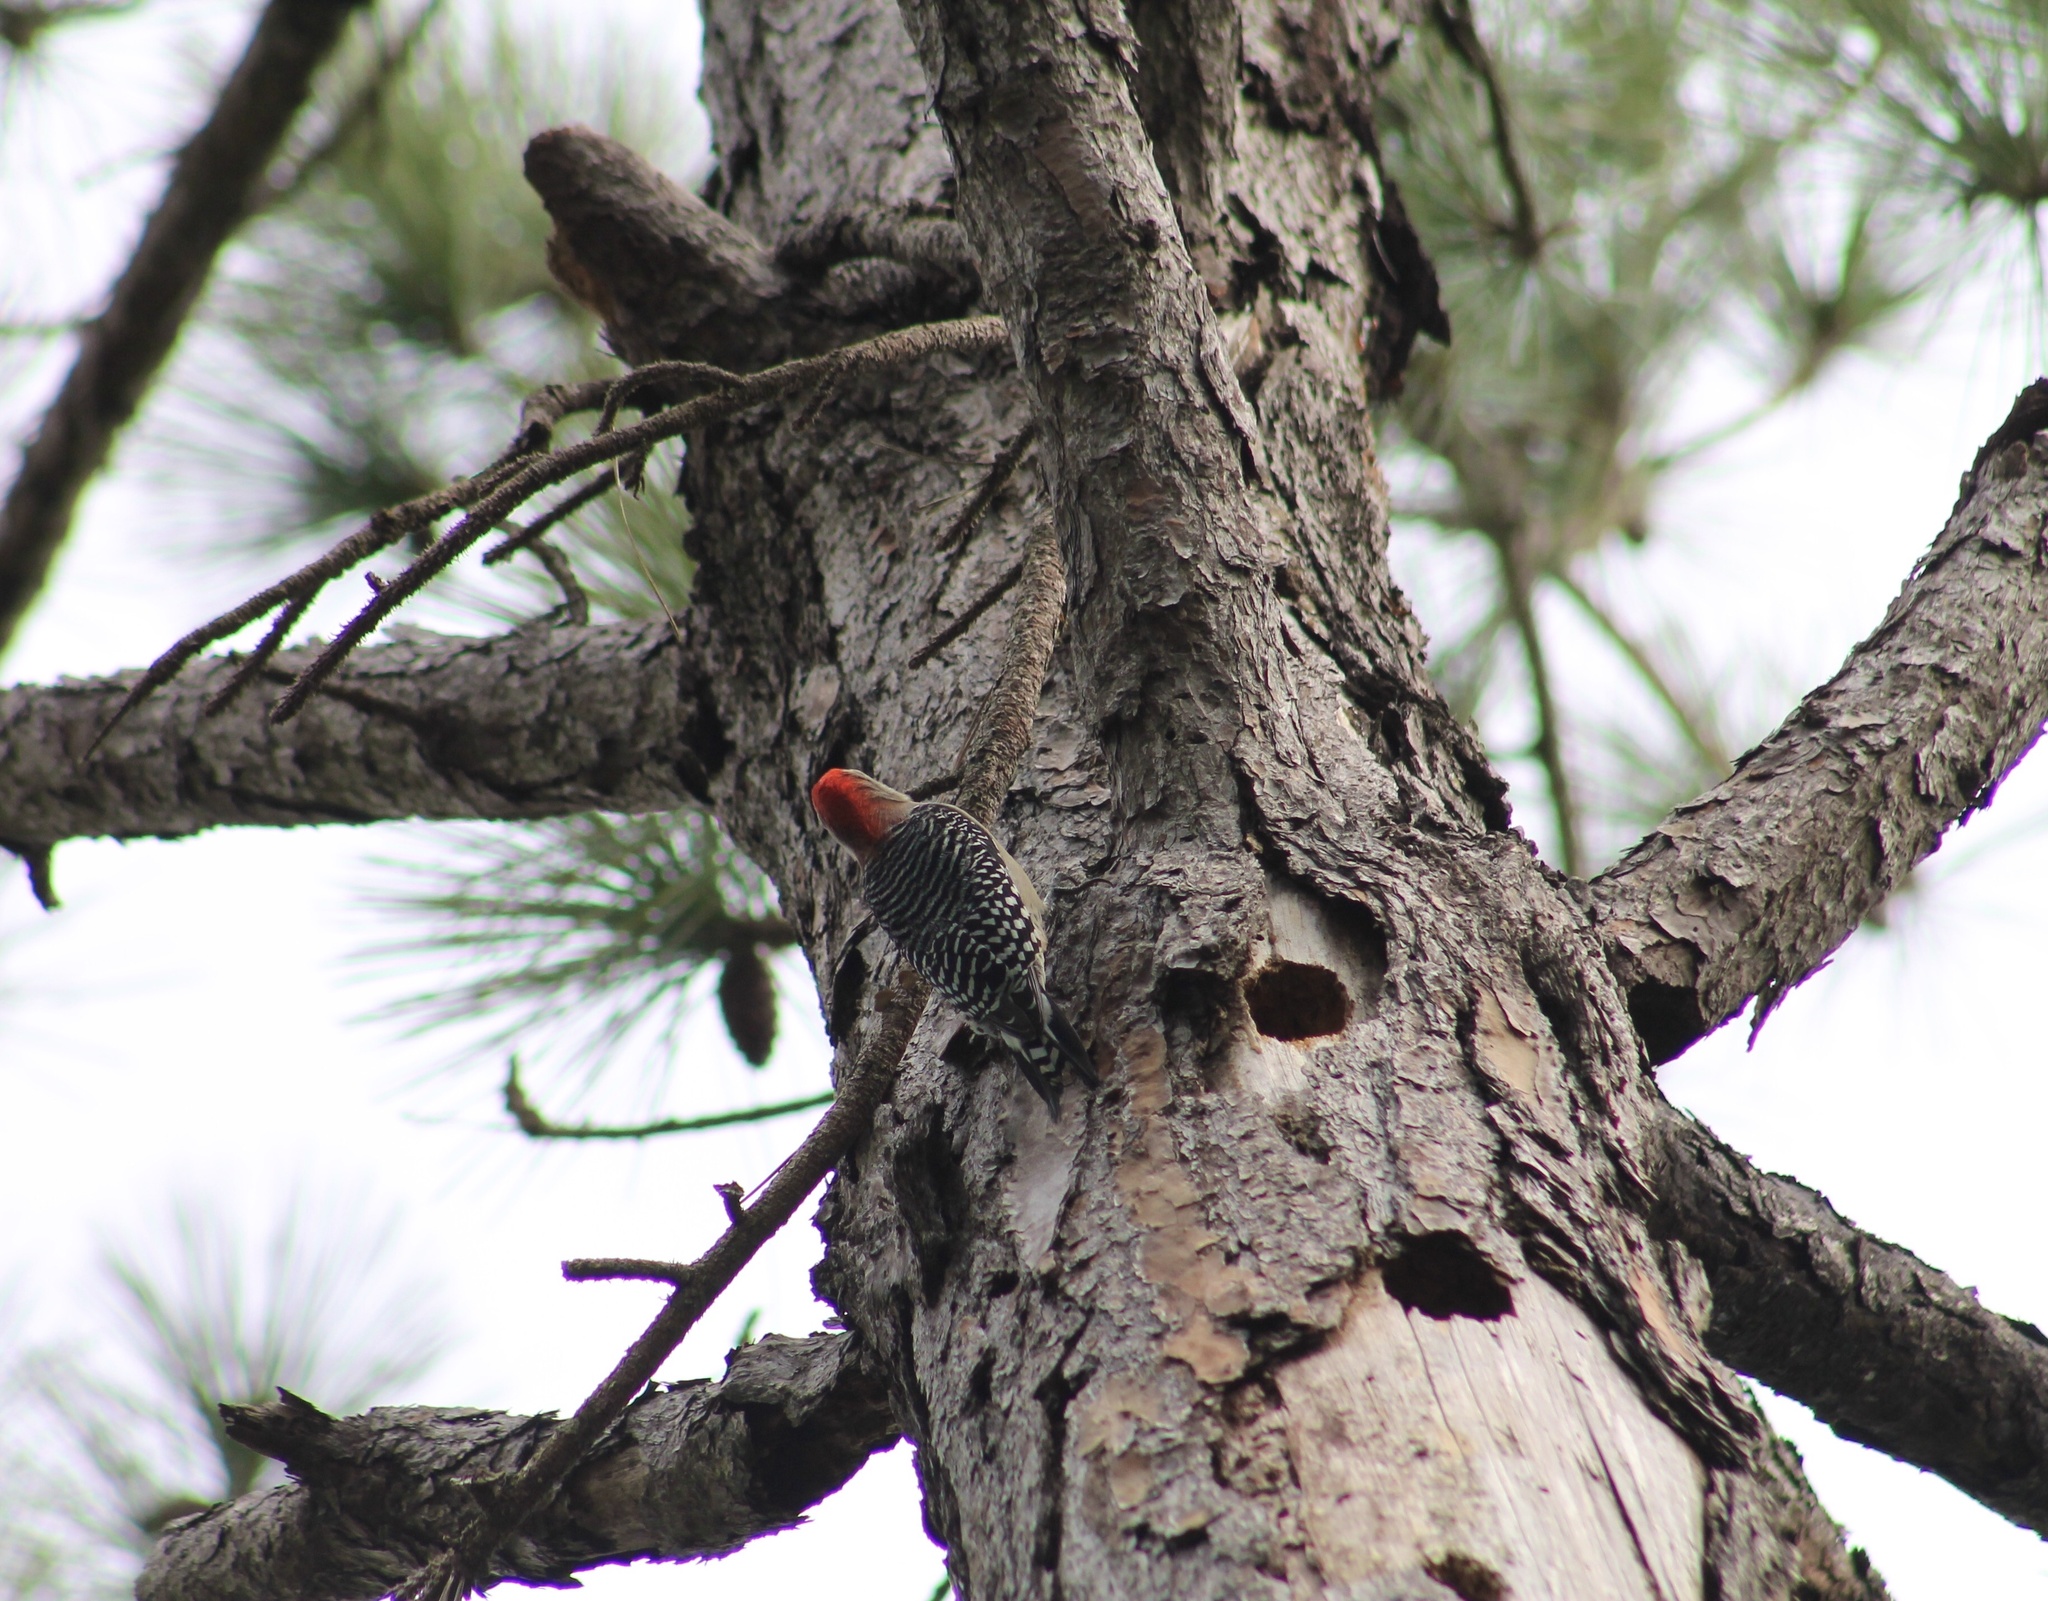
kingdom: Animalia
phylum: Chordata
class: Aves
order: Piciformes
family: Picidae
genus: Melanerpes
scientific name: Melanerpes carolinus
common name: Red-bellied woodpecker
